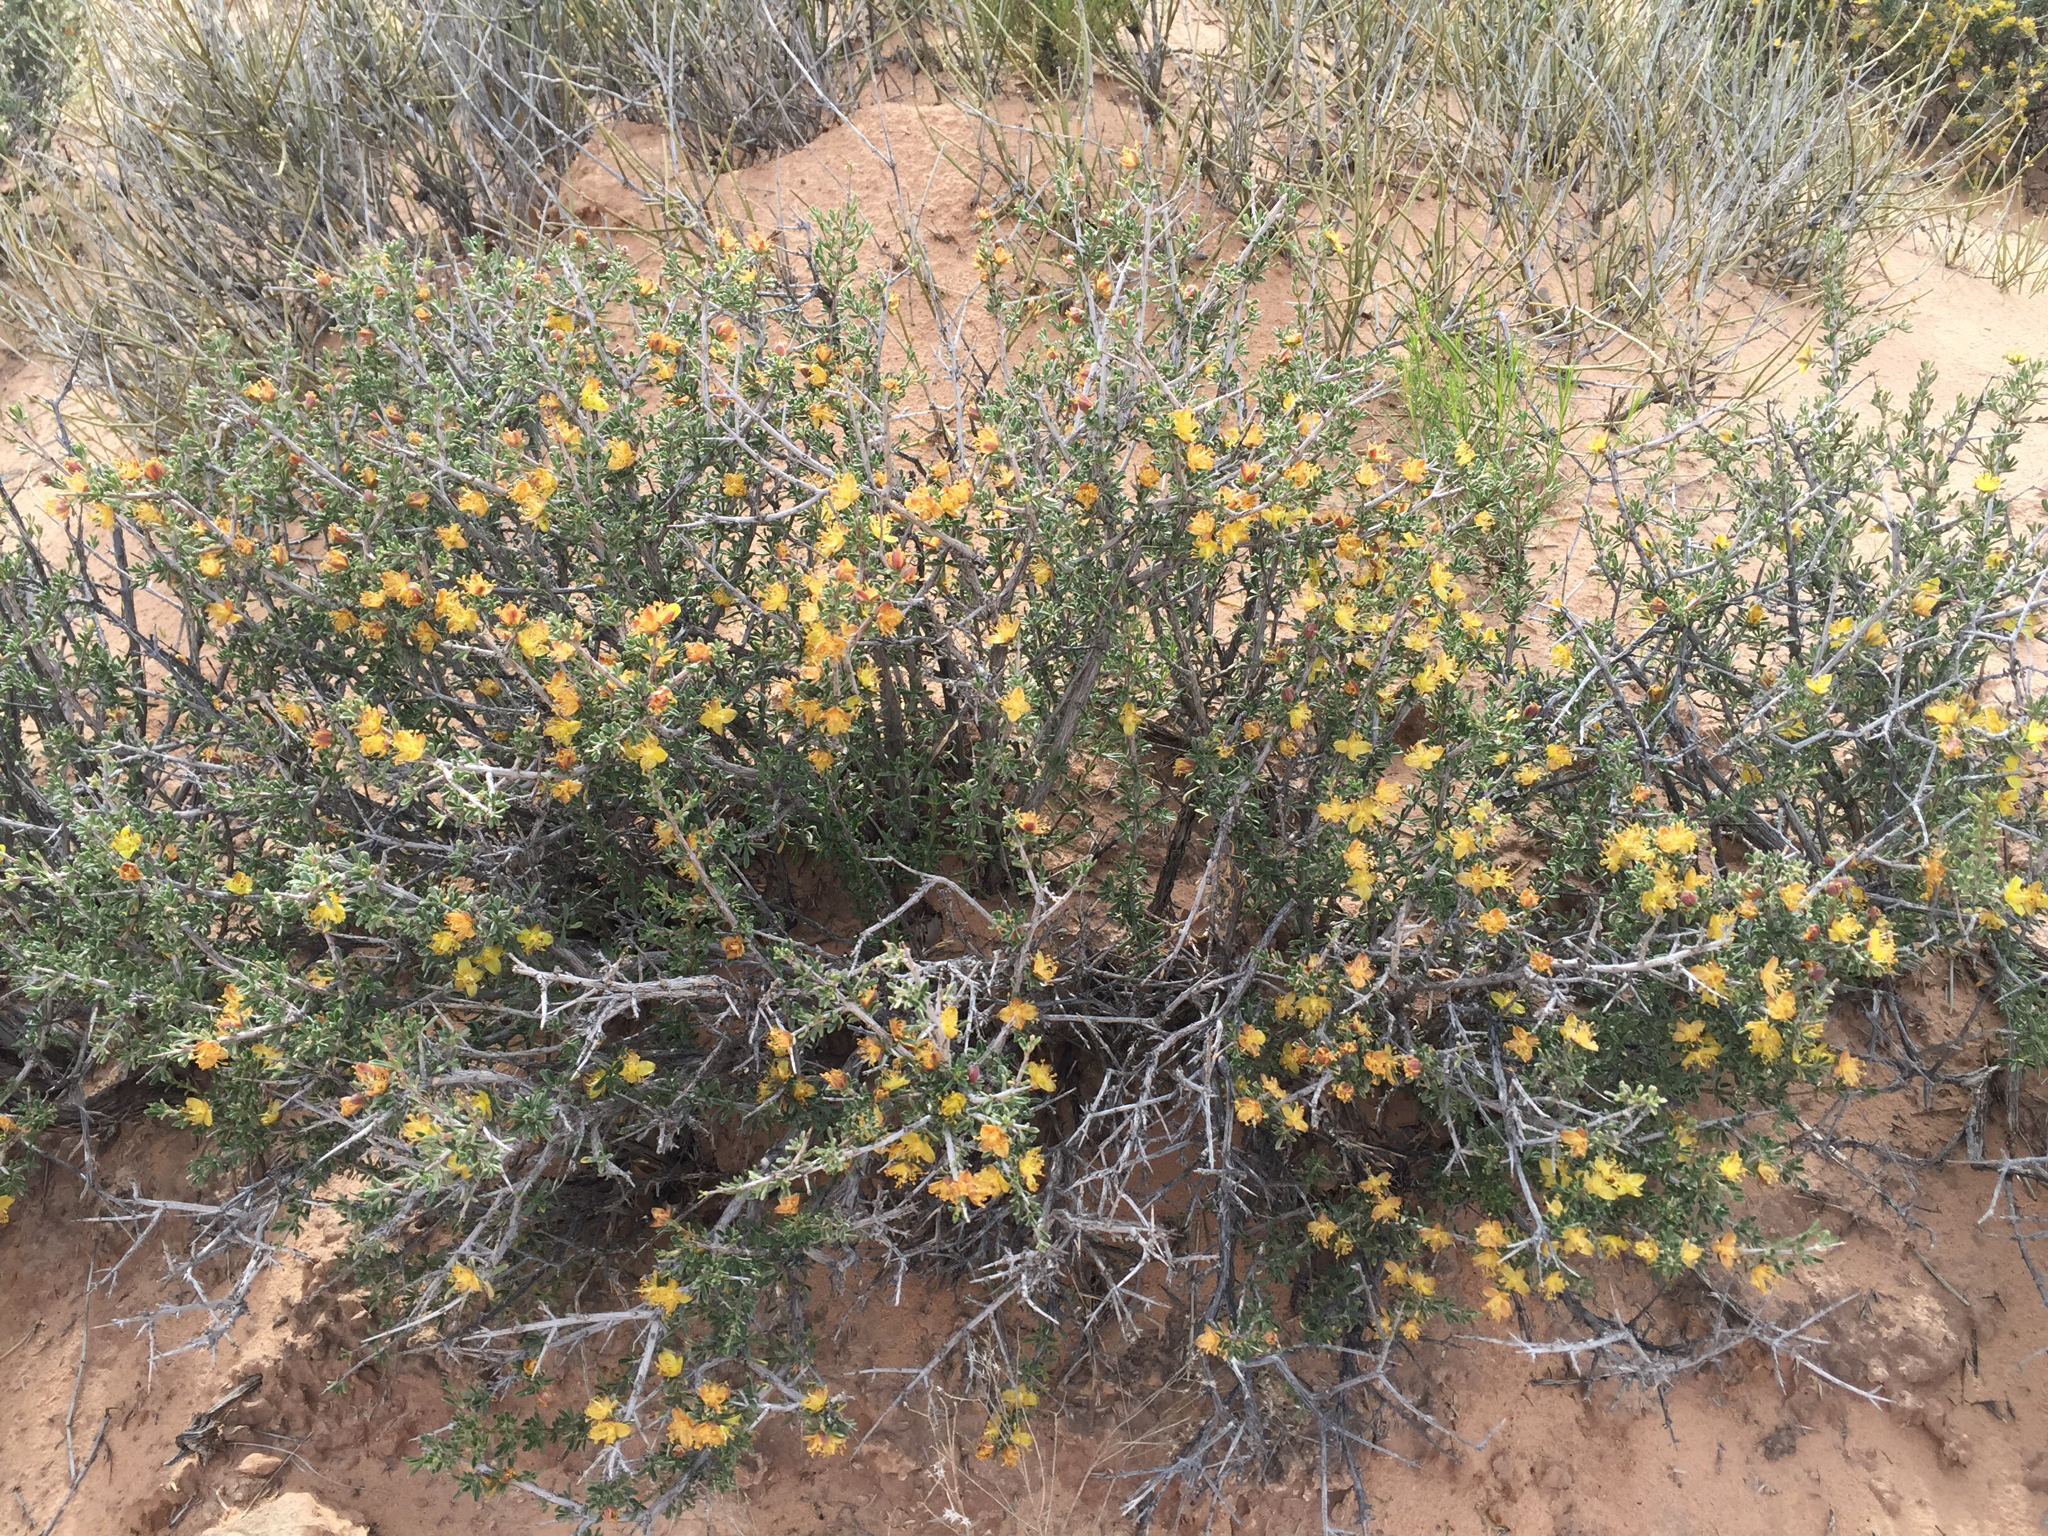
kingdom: Plantae
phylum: Tracheophyta
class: Magnoliopsida
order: Rosales
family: Rosaceae
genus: Coleogyne
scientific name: Coleogyne ramosissima
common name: Blackbrush
